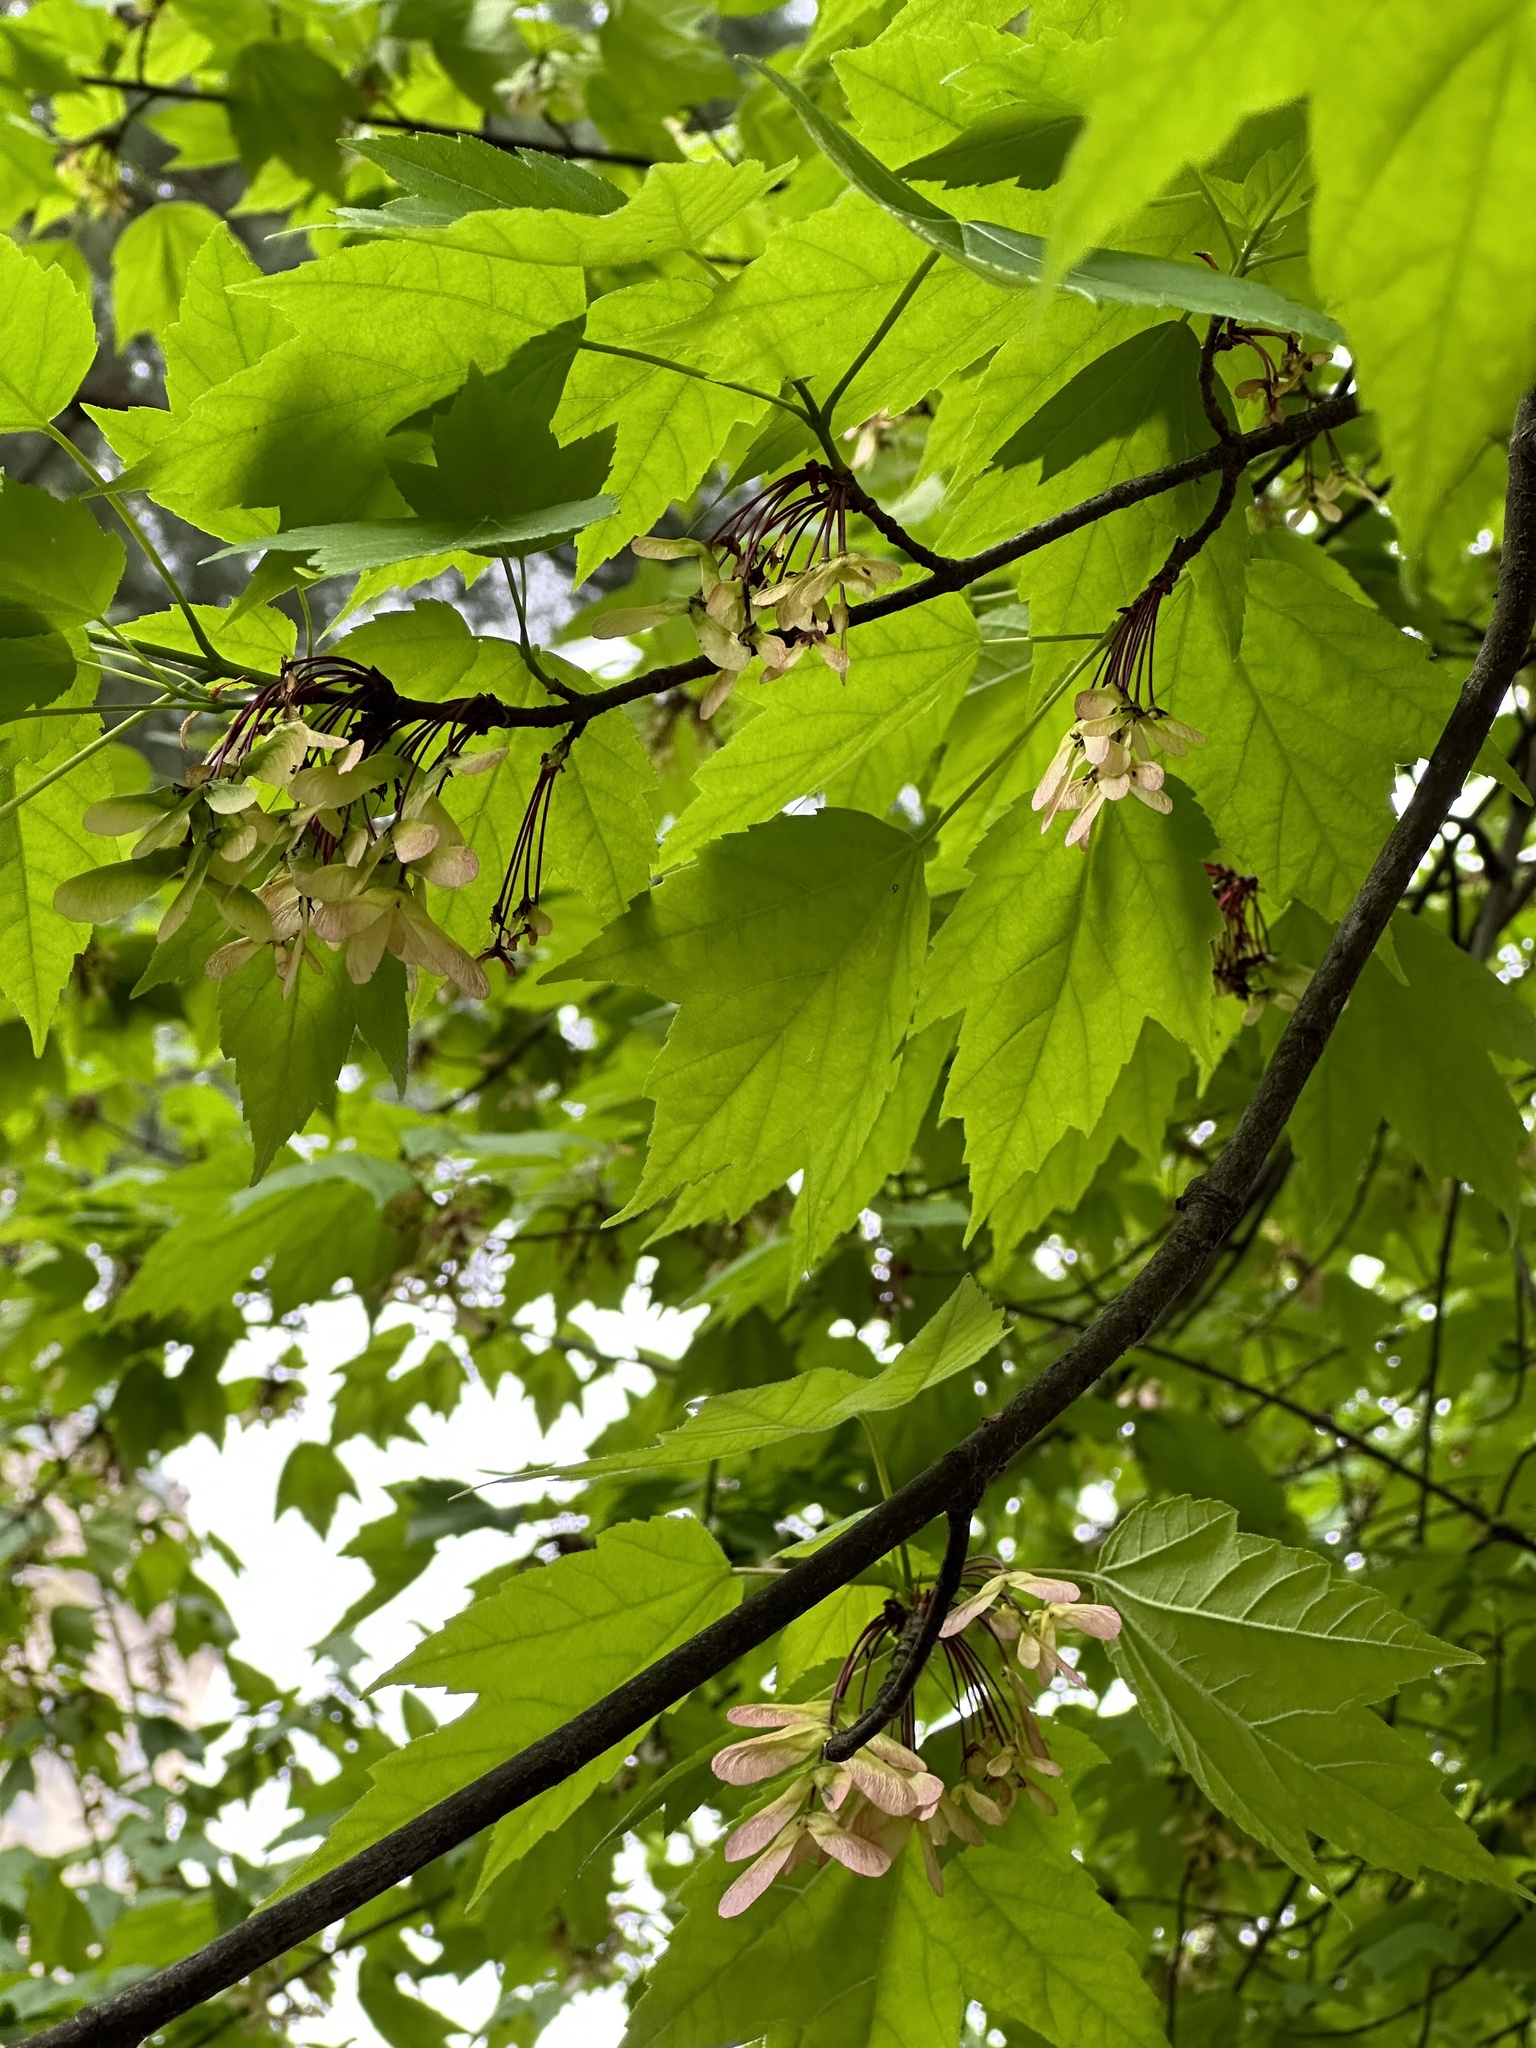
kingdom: Plantae
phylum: Tracheophyta
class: Magnoliopsida
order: Sapindales
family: Sapindaceae
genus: Acer
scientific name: Acer rubrum
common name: Red maple
